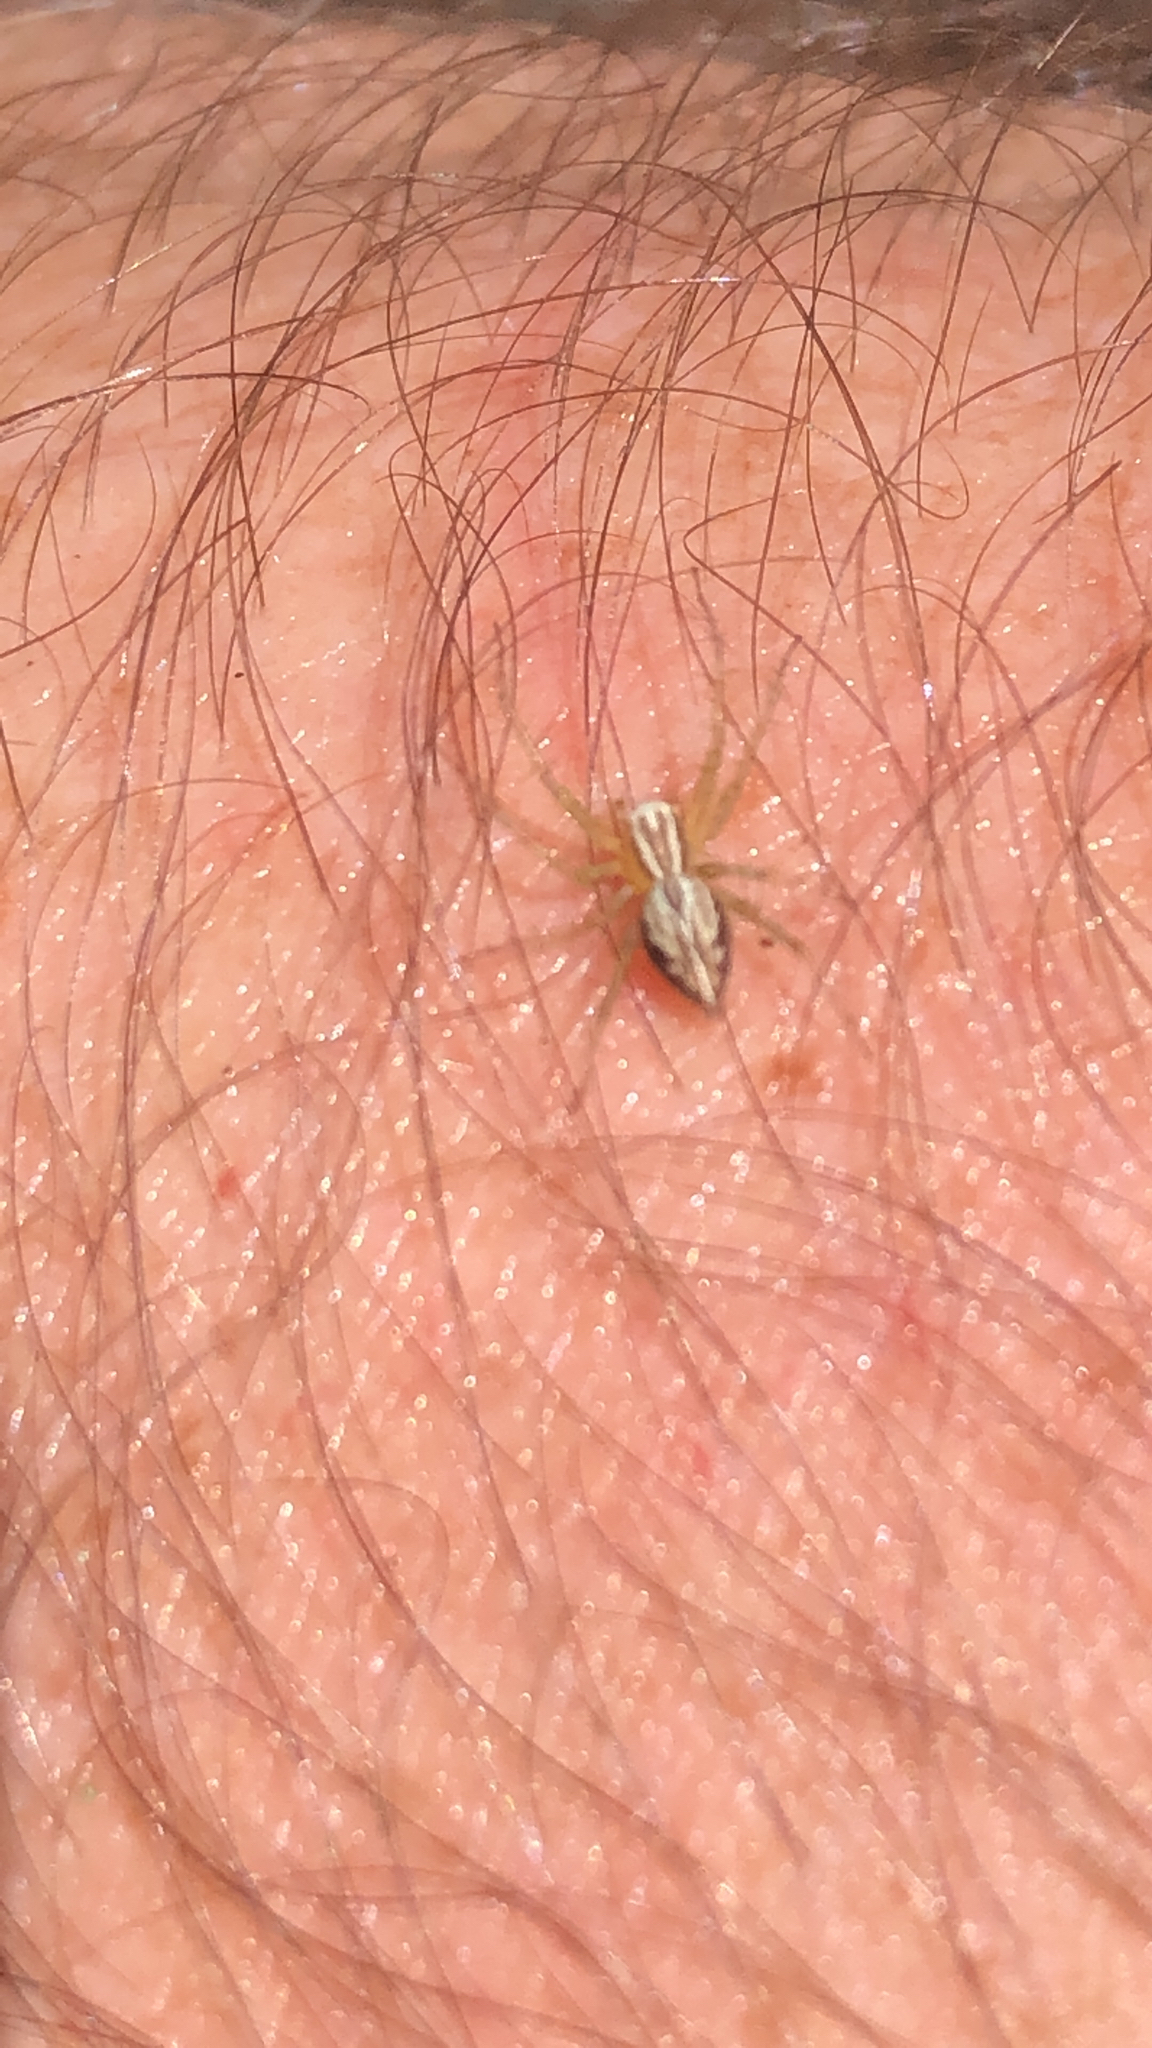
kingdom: Animalia
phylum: Arthropoda
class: Arachnida
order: Araneae
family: Oxyopidae
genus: Oxyopes
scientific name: Oxyopes salticus
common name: Lynx spiders
